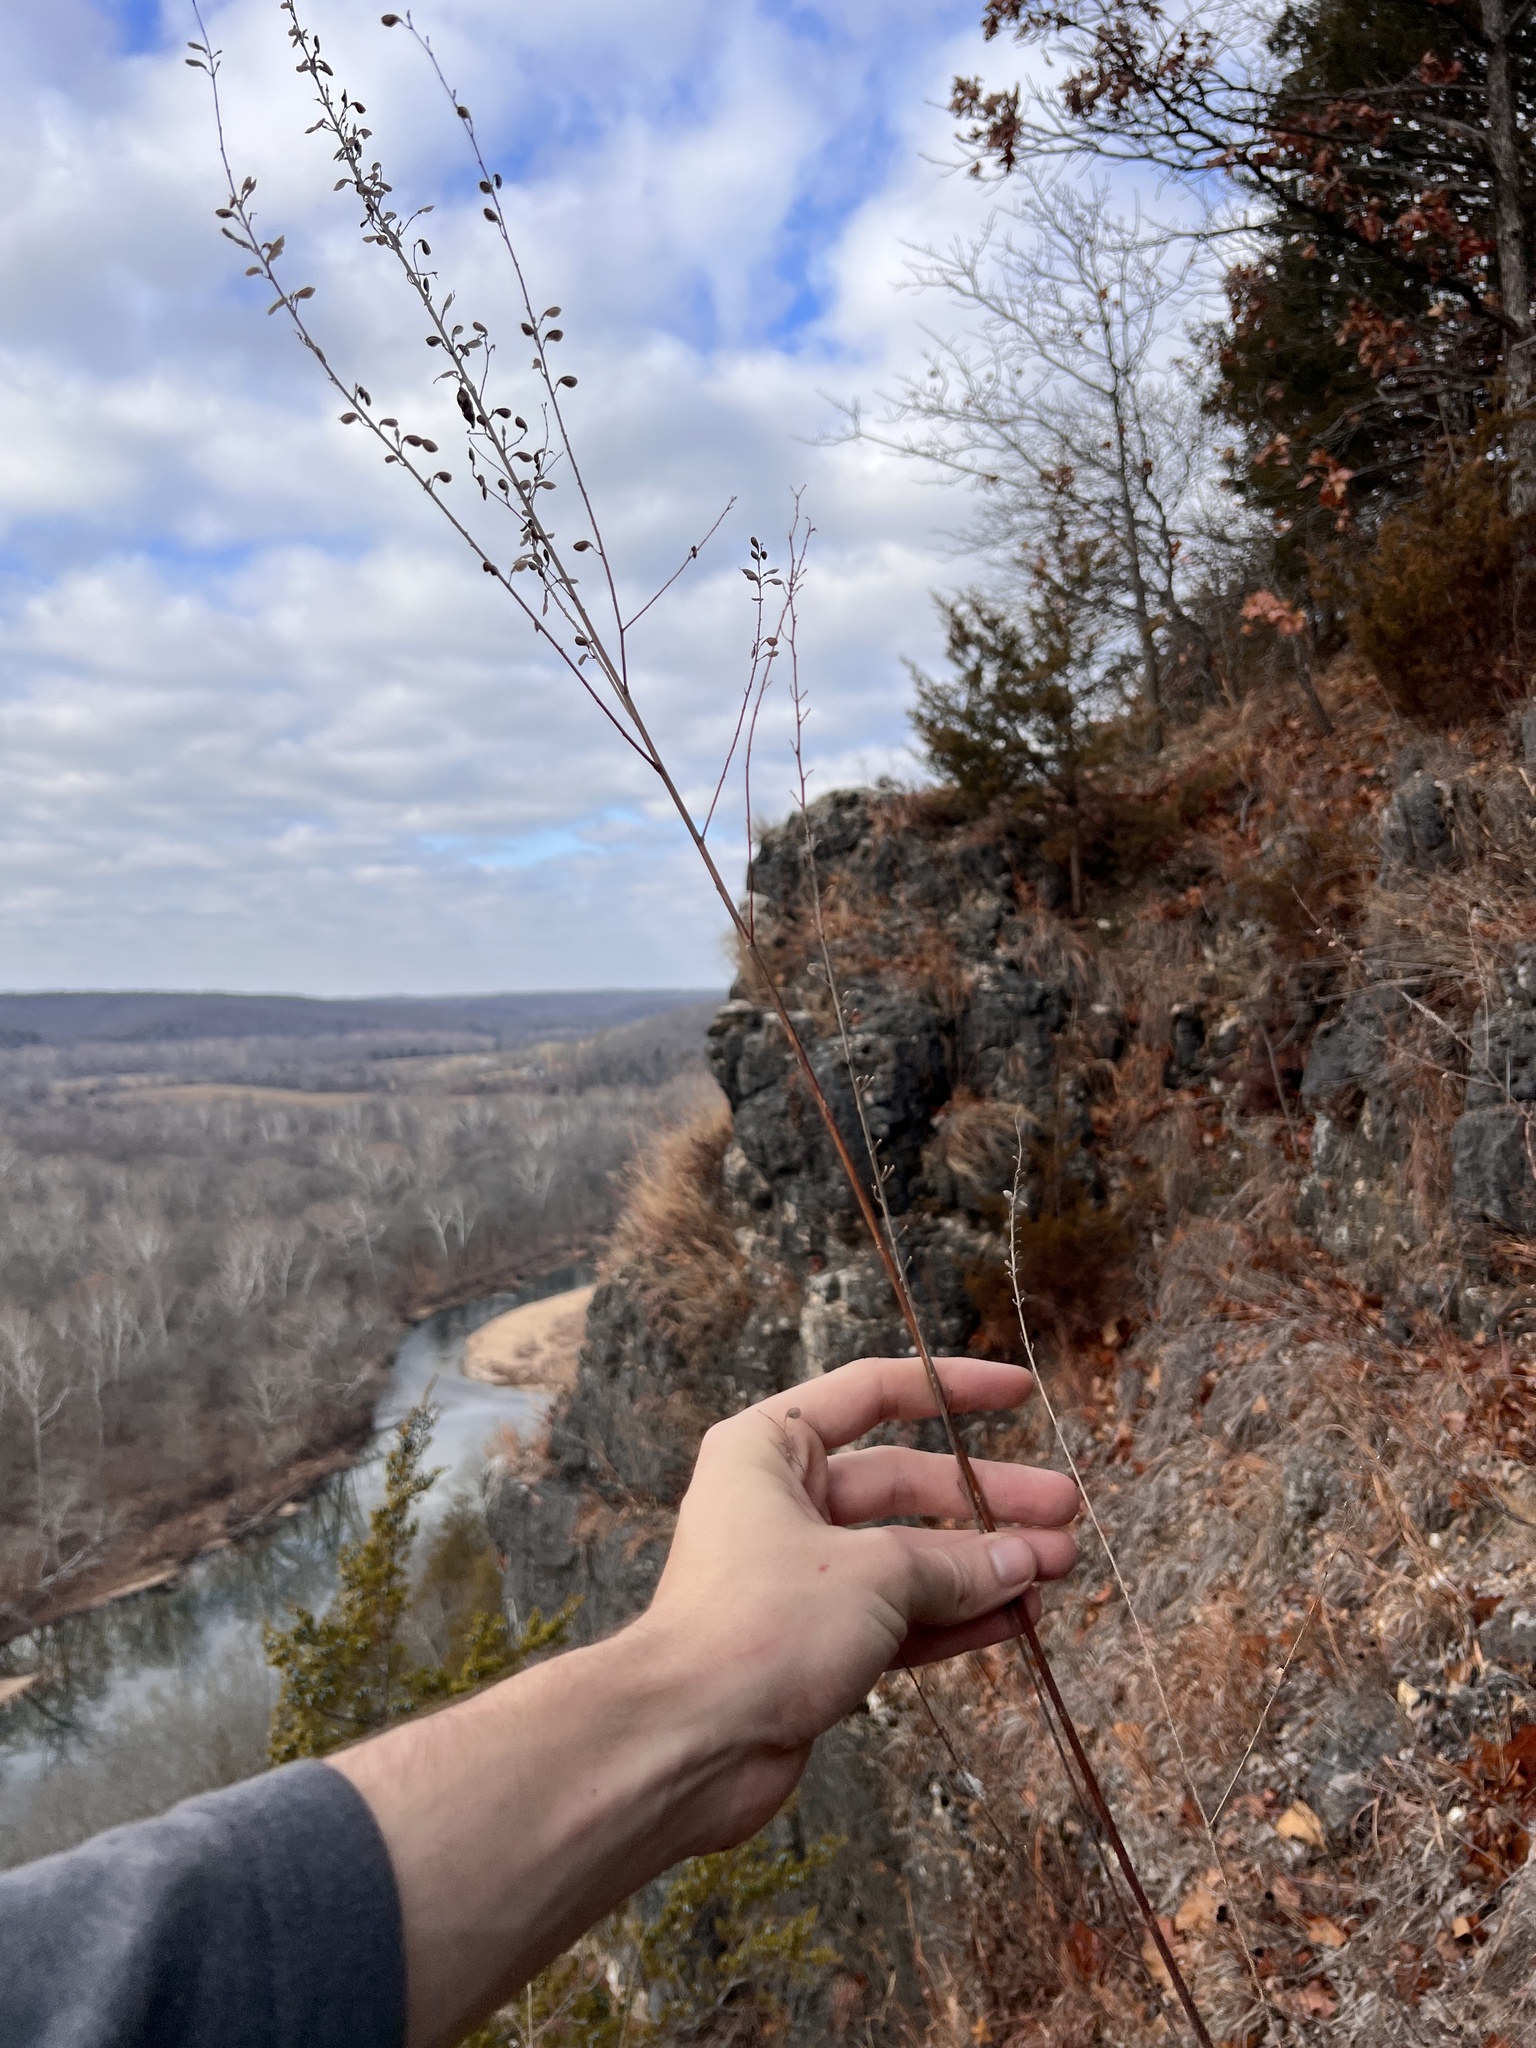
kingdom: Plantae
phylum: Tracheophyta
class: Magnoliopsida
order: Fabales
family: Fabaceae
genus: Desmodium
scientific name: Desmodium sessilifolium
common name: Sessile tick-clover
